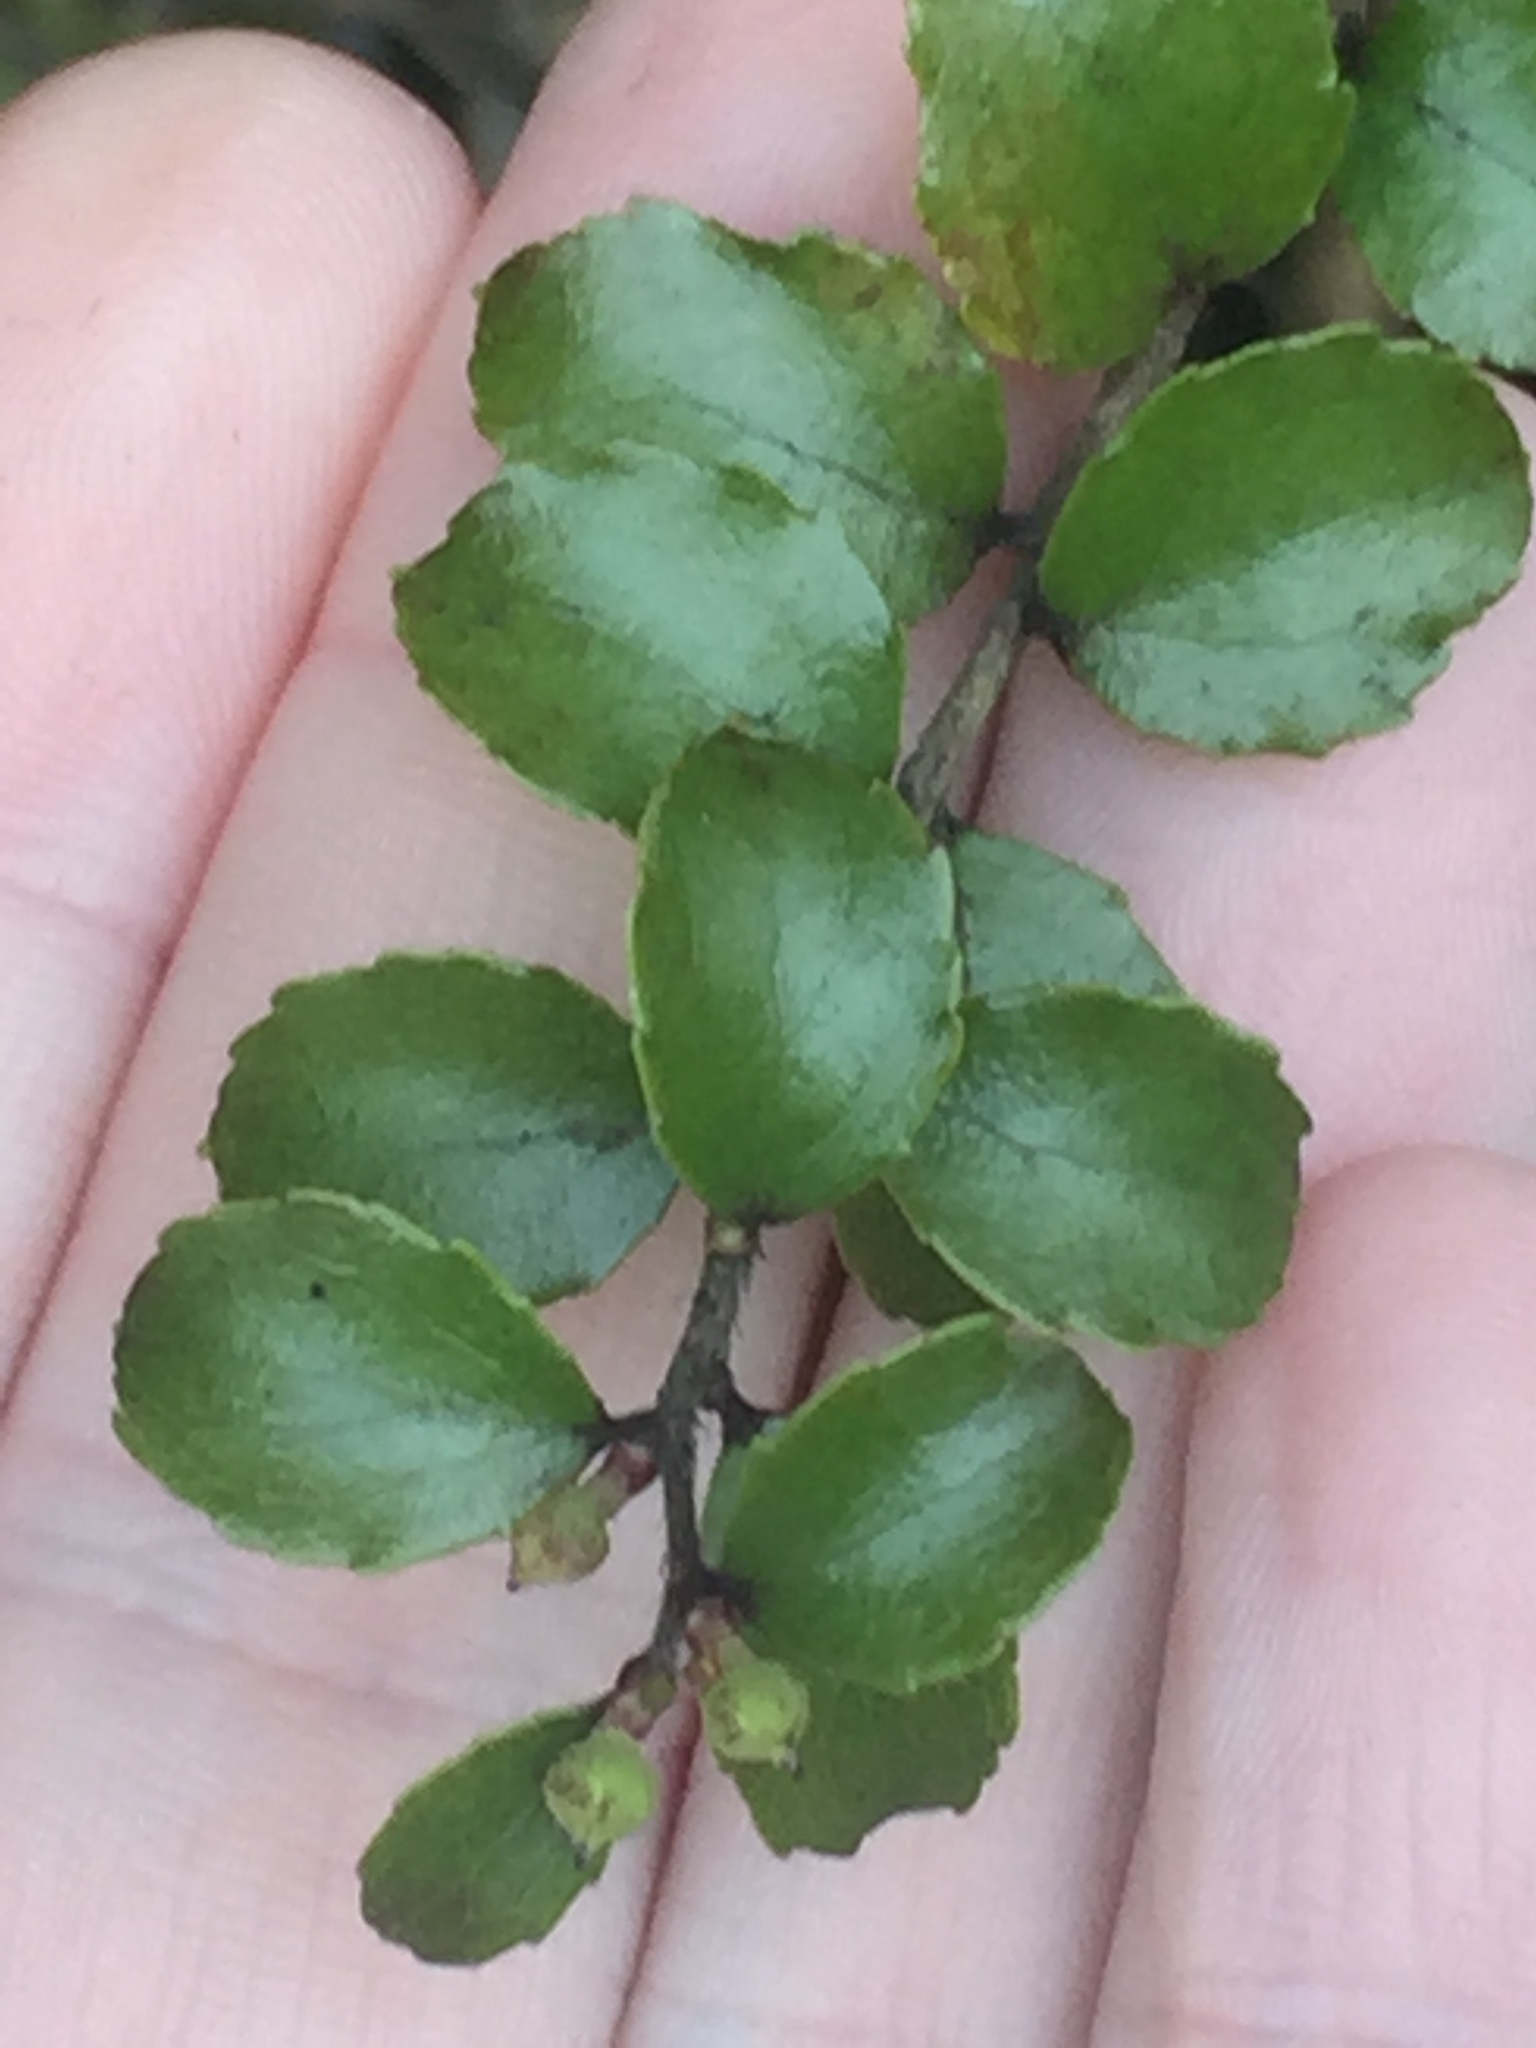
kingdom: Plantae
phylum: Tracheophyta
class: Magnoliopsida
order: Ericales
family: Ericaceae
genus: Gaultheria
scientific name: Gaultheria antipoda
